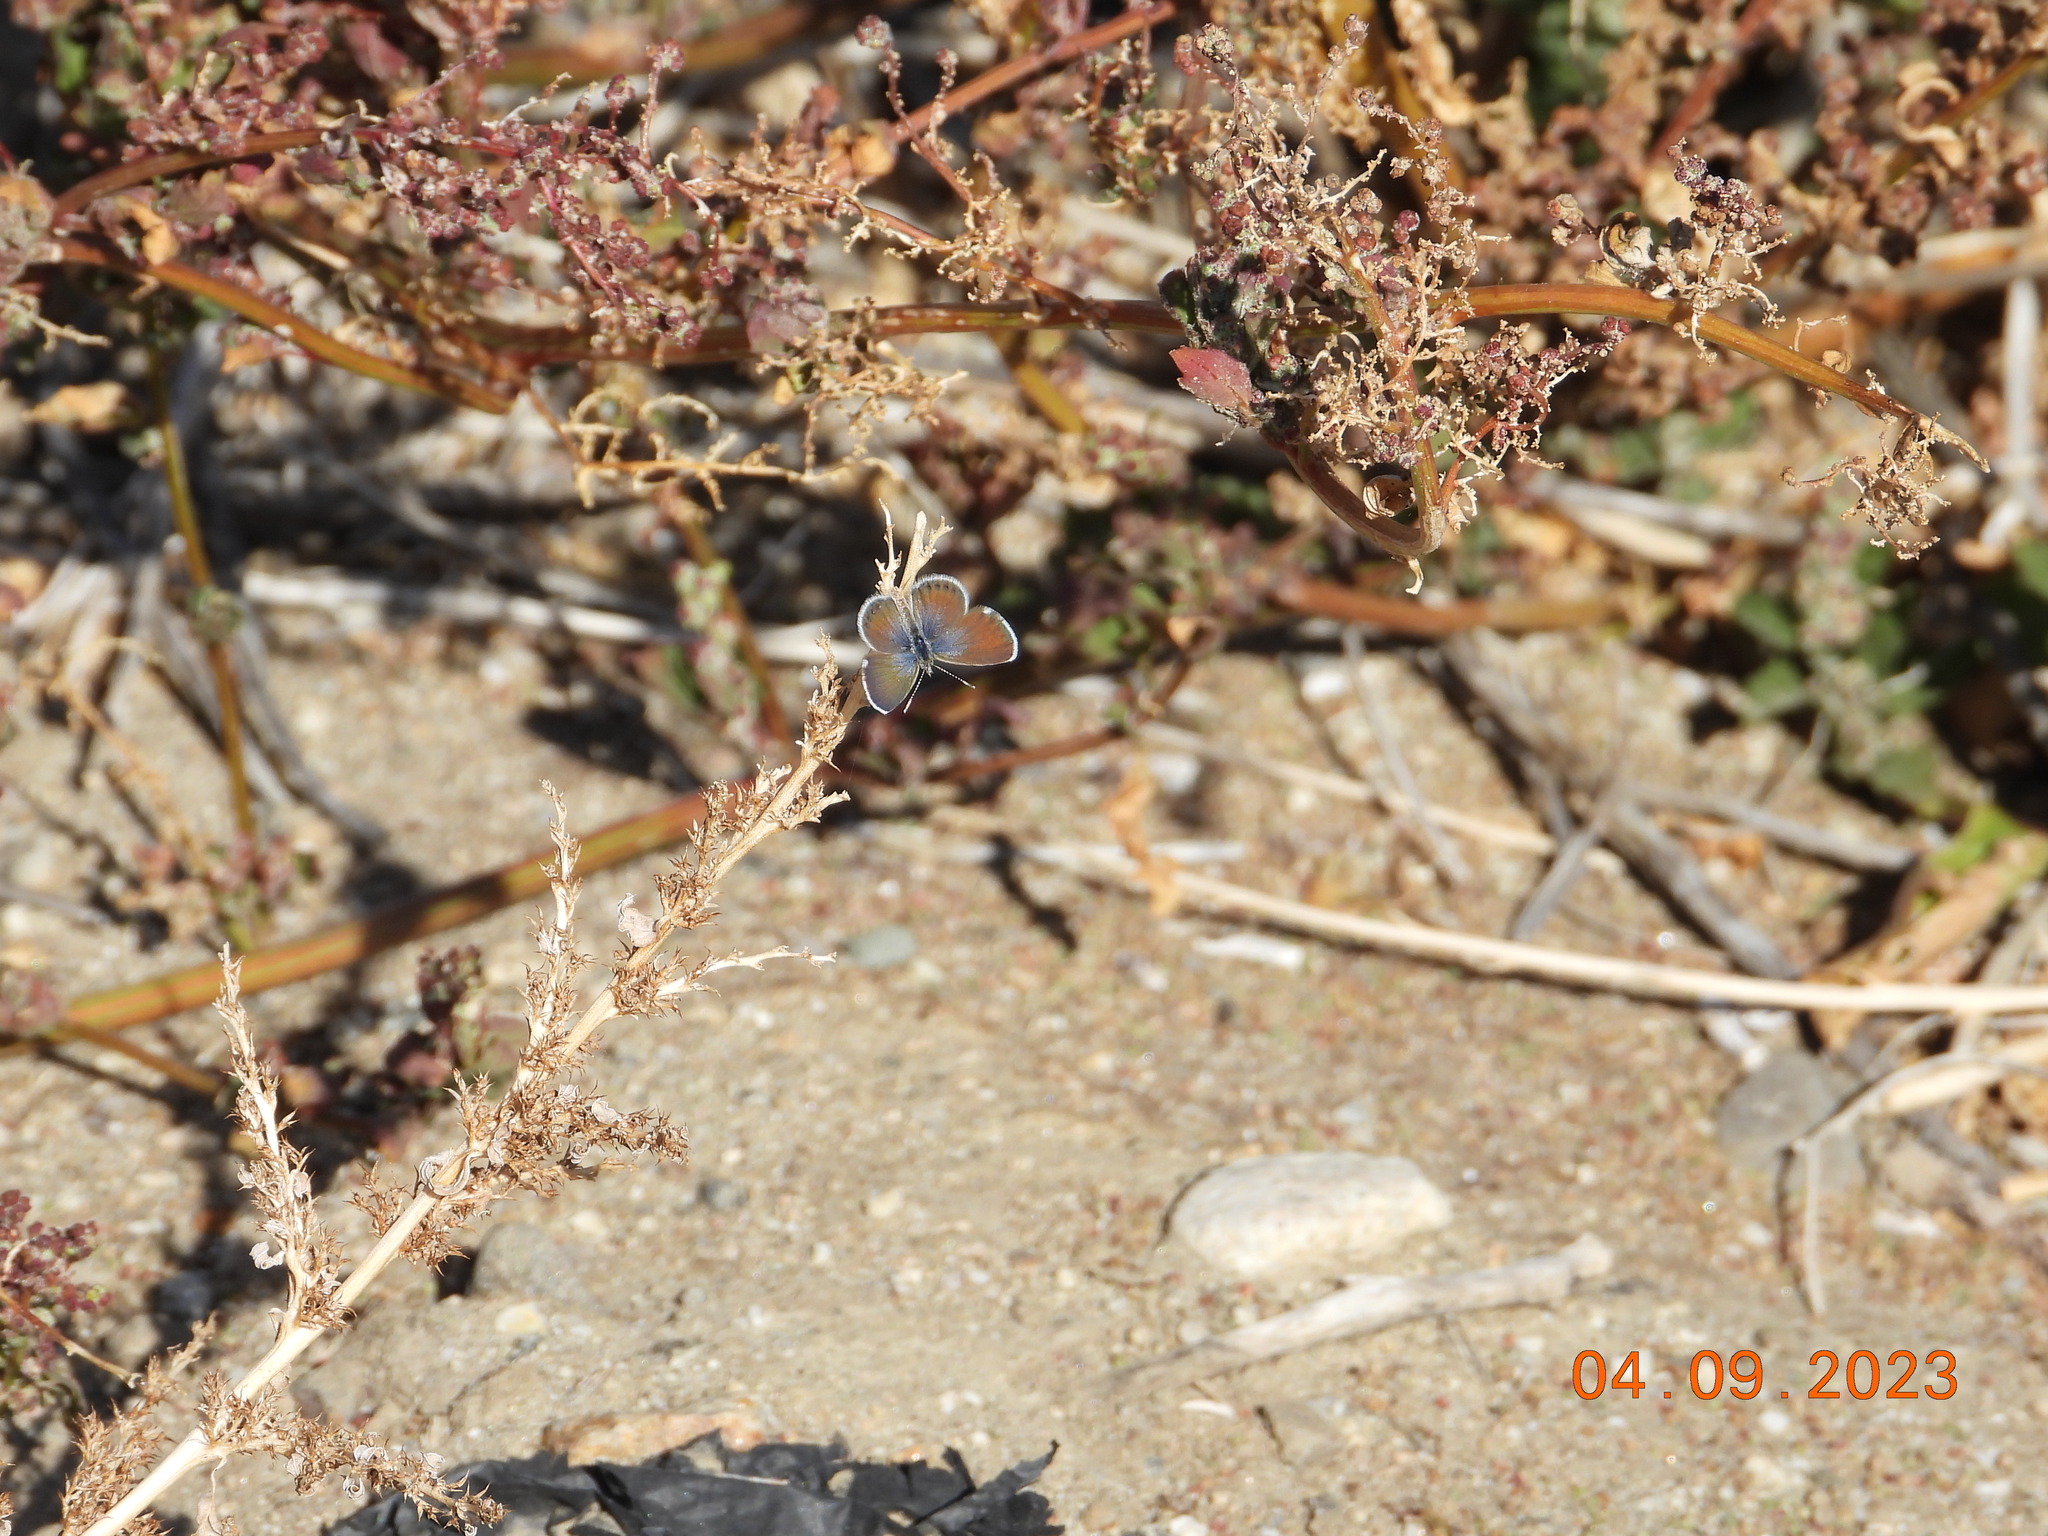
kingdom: Animalia
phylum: Arthropoda
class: Insecta
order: Lepidoptera
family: Lycaenidae
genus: Brephidium
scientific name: Brephidium exilis
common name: Pygmy blue
